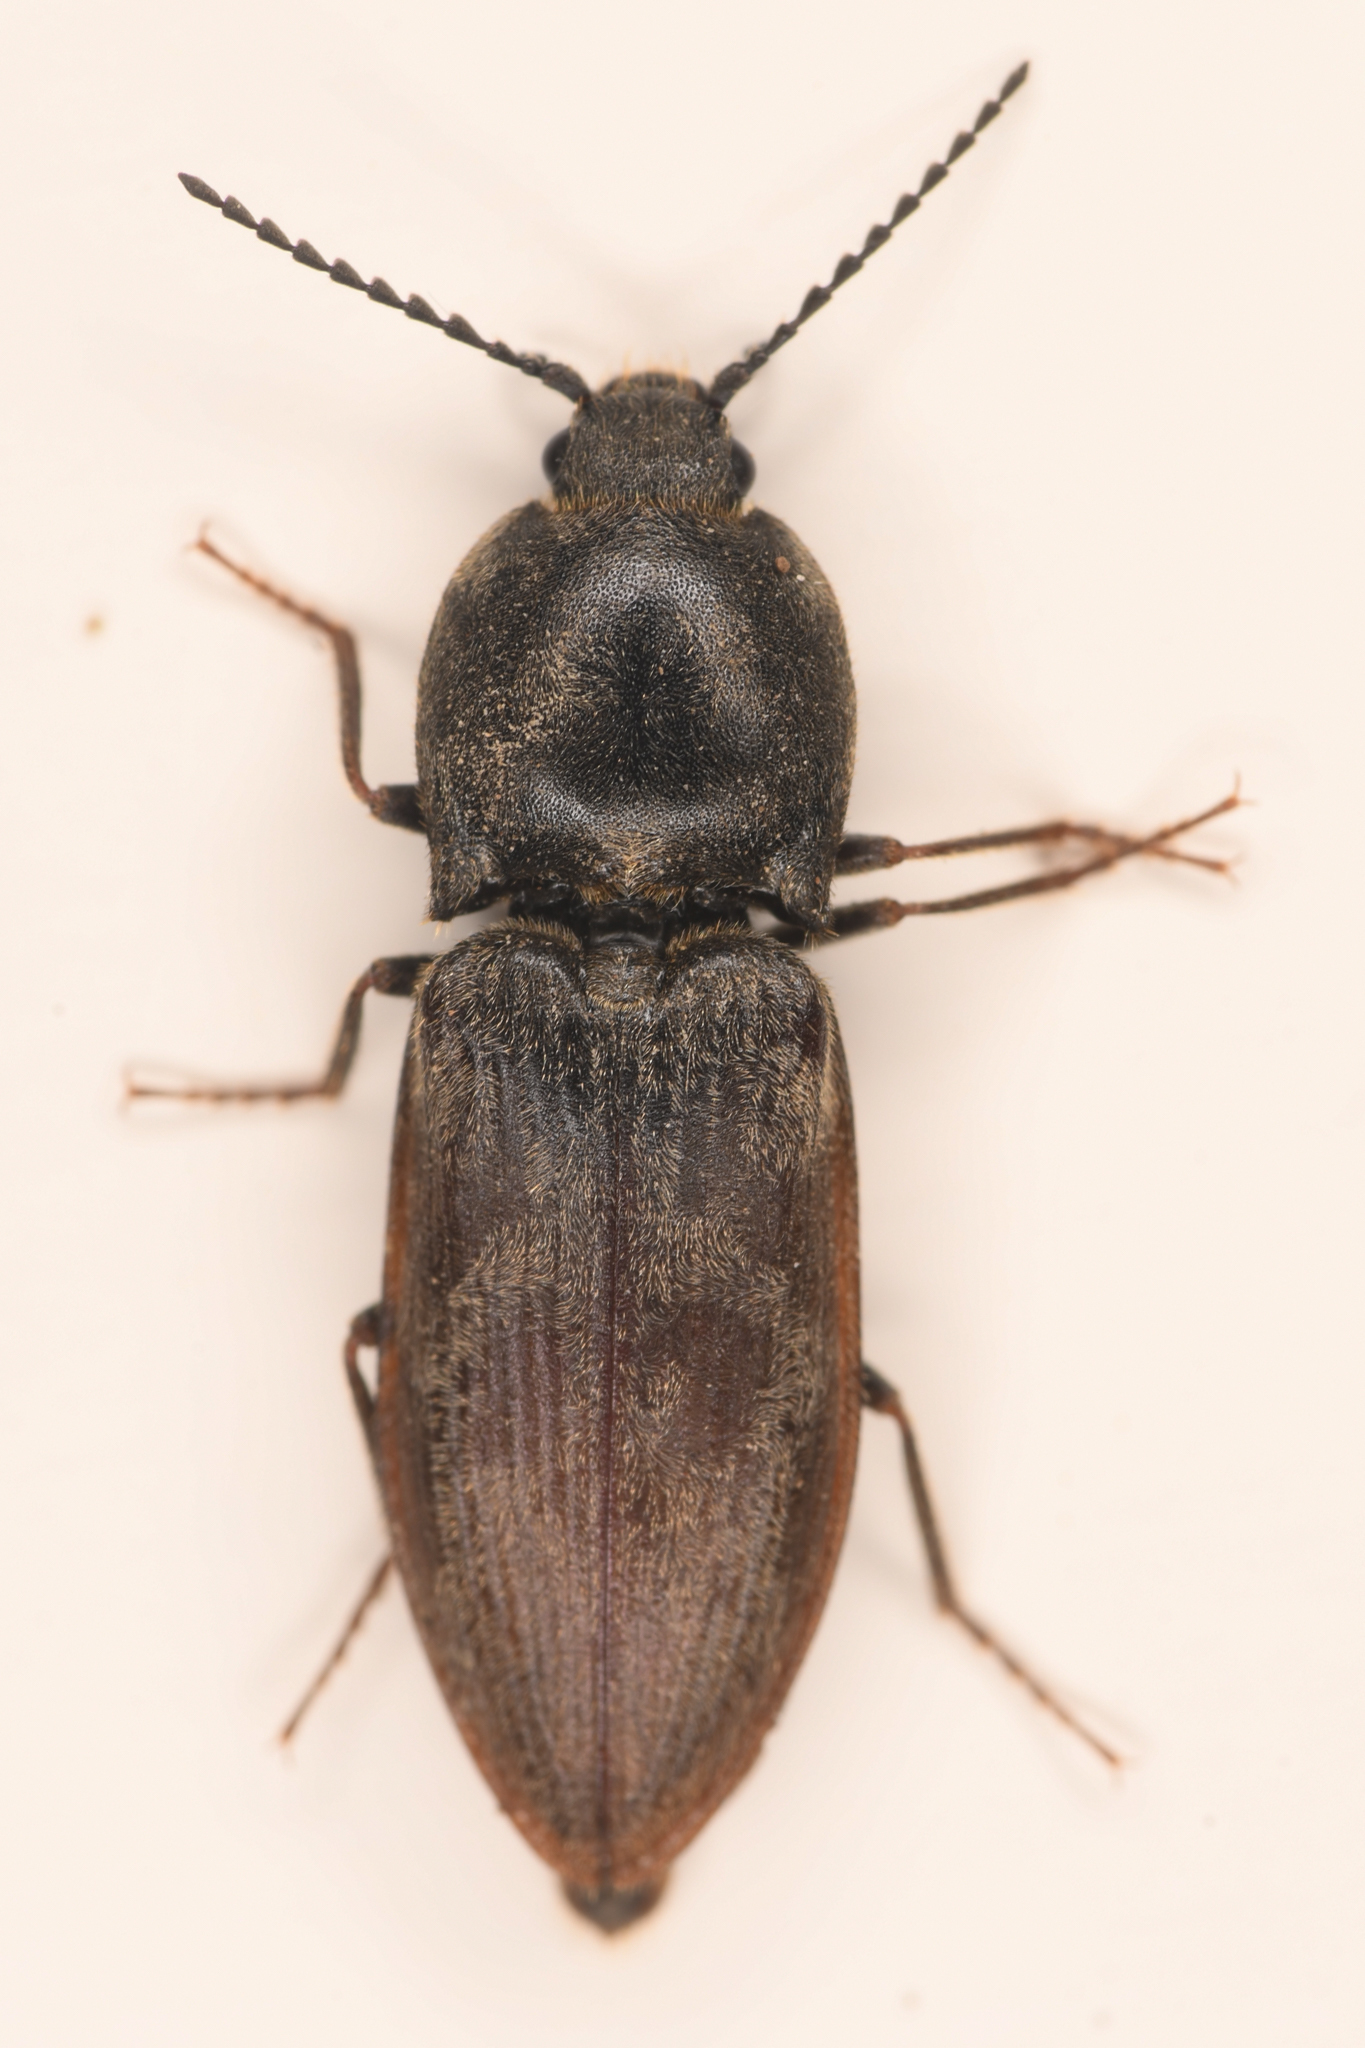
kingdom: Animalia
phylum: Arthropoda
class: Insecta
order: Coleoptera
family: Elateridae
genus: Prosternon
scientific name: Prosternon viduum
